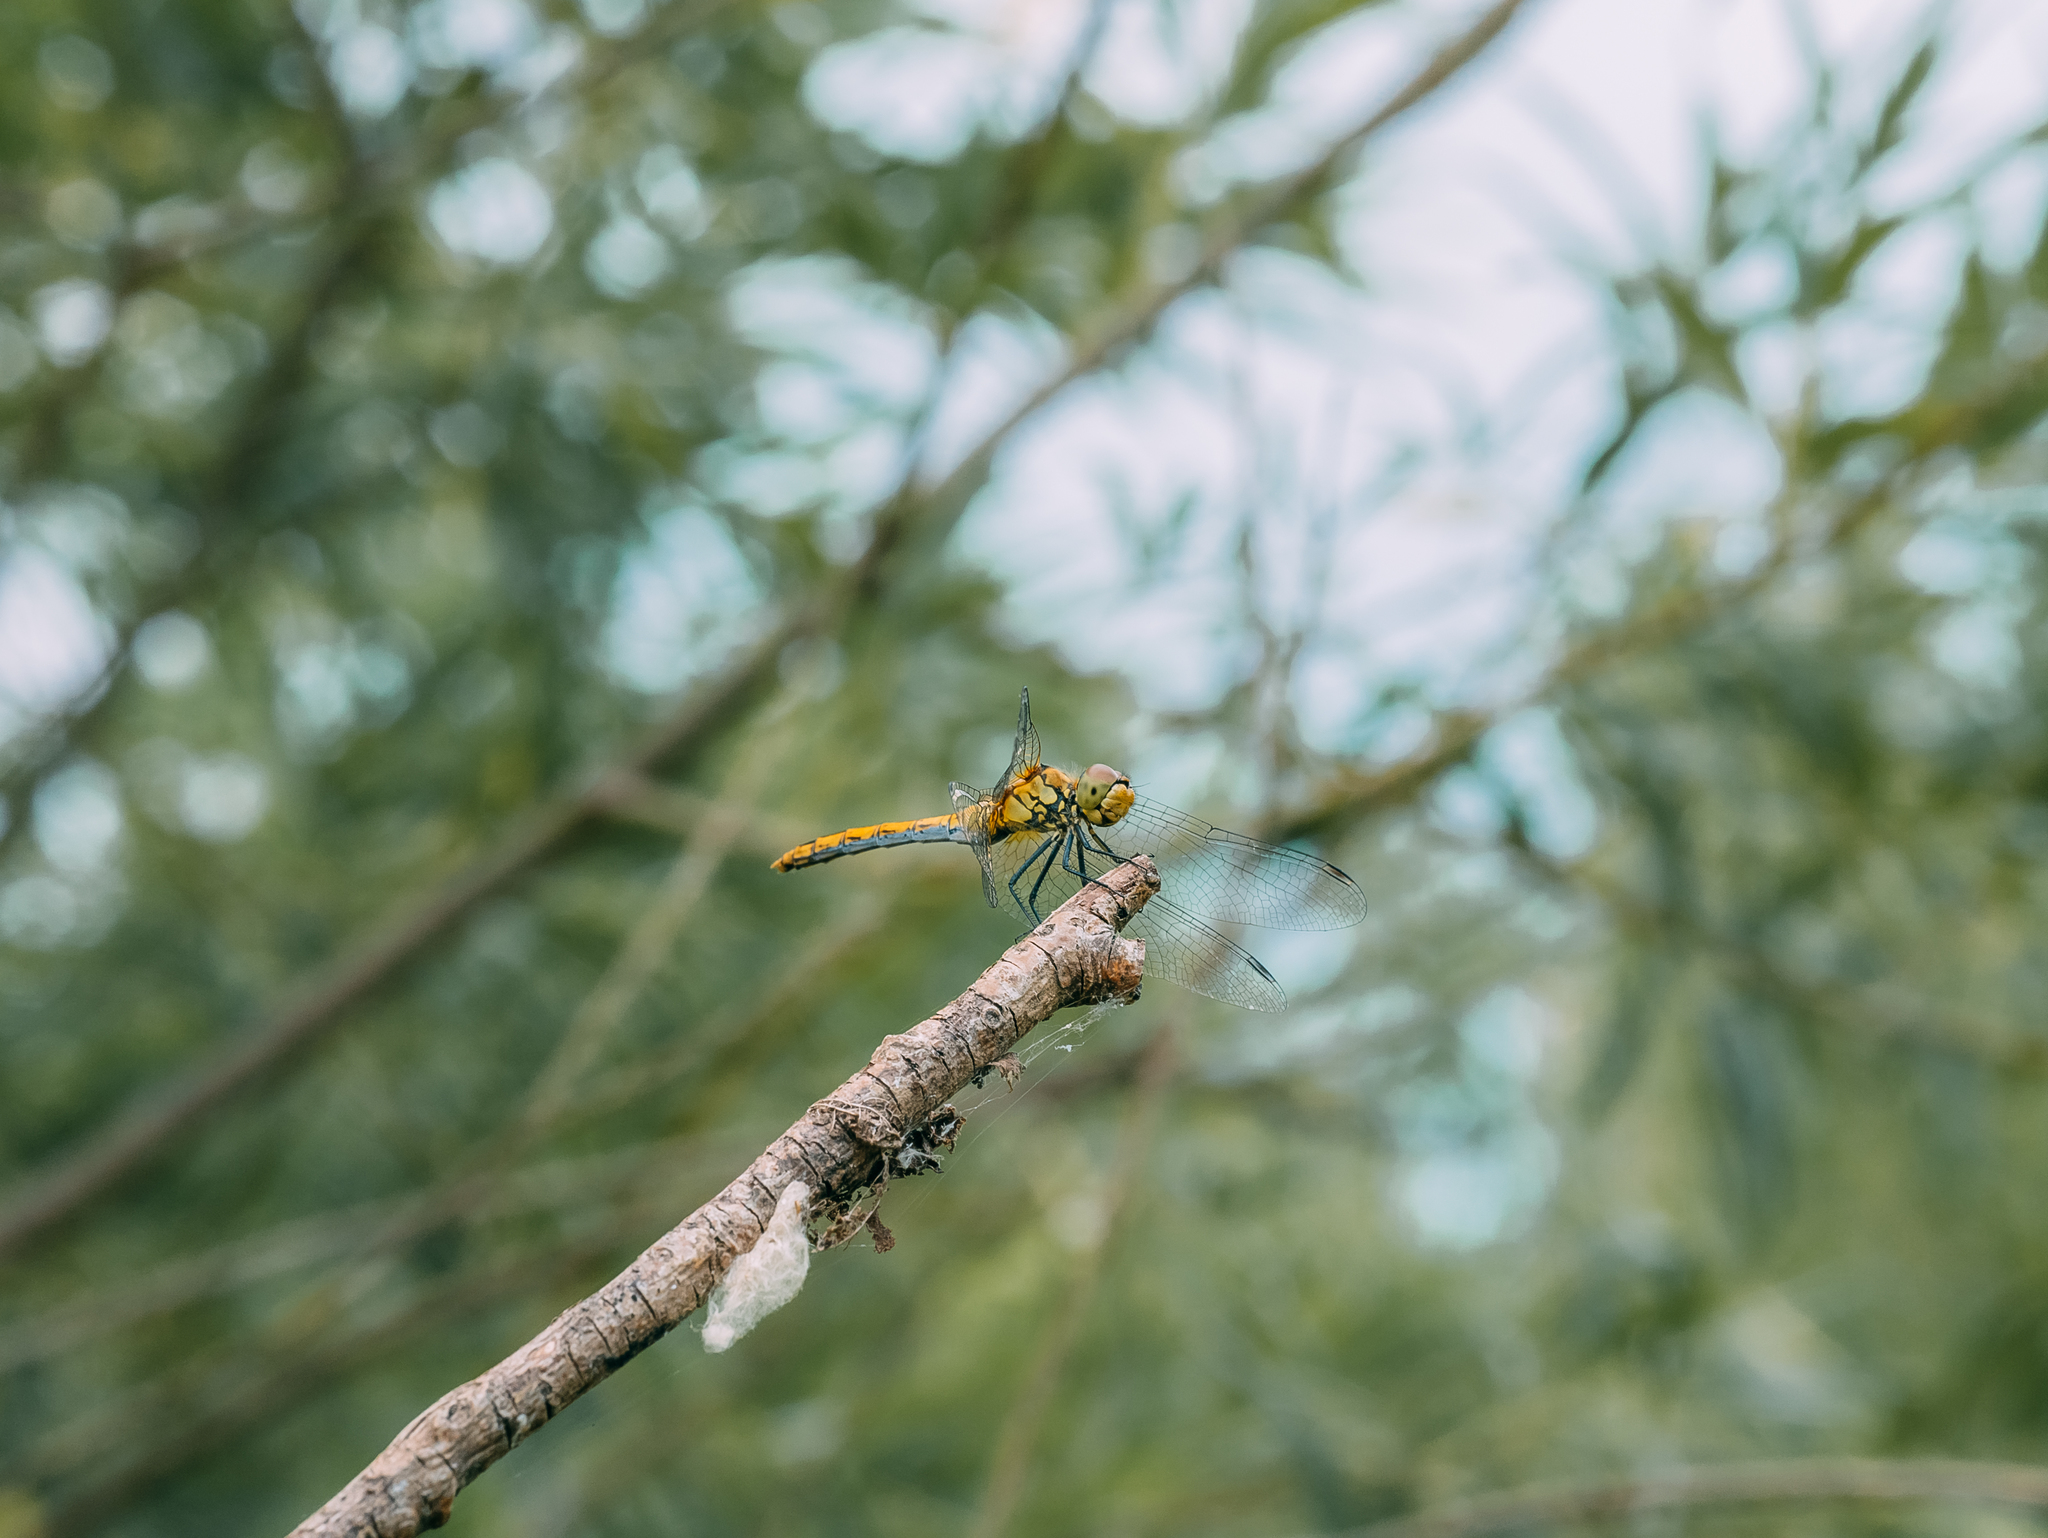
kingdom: Animalia
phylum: Arthropoda
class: Insecta
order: Odonata
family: Libellulidae
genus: Sympetrum
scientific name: Sympetrum sanguineum
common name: Ruddy darter
